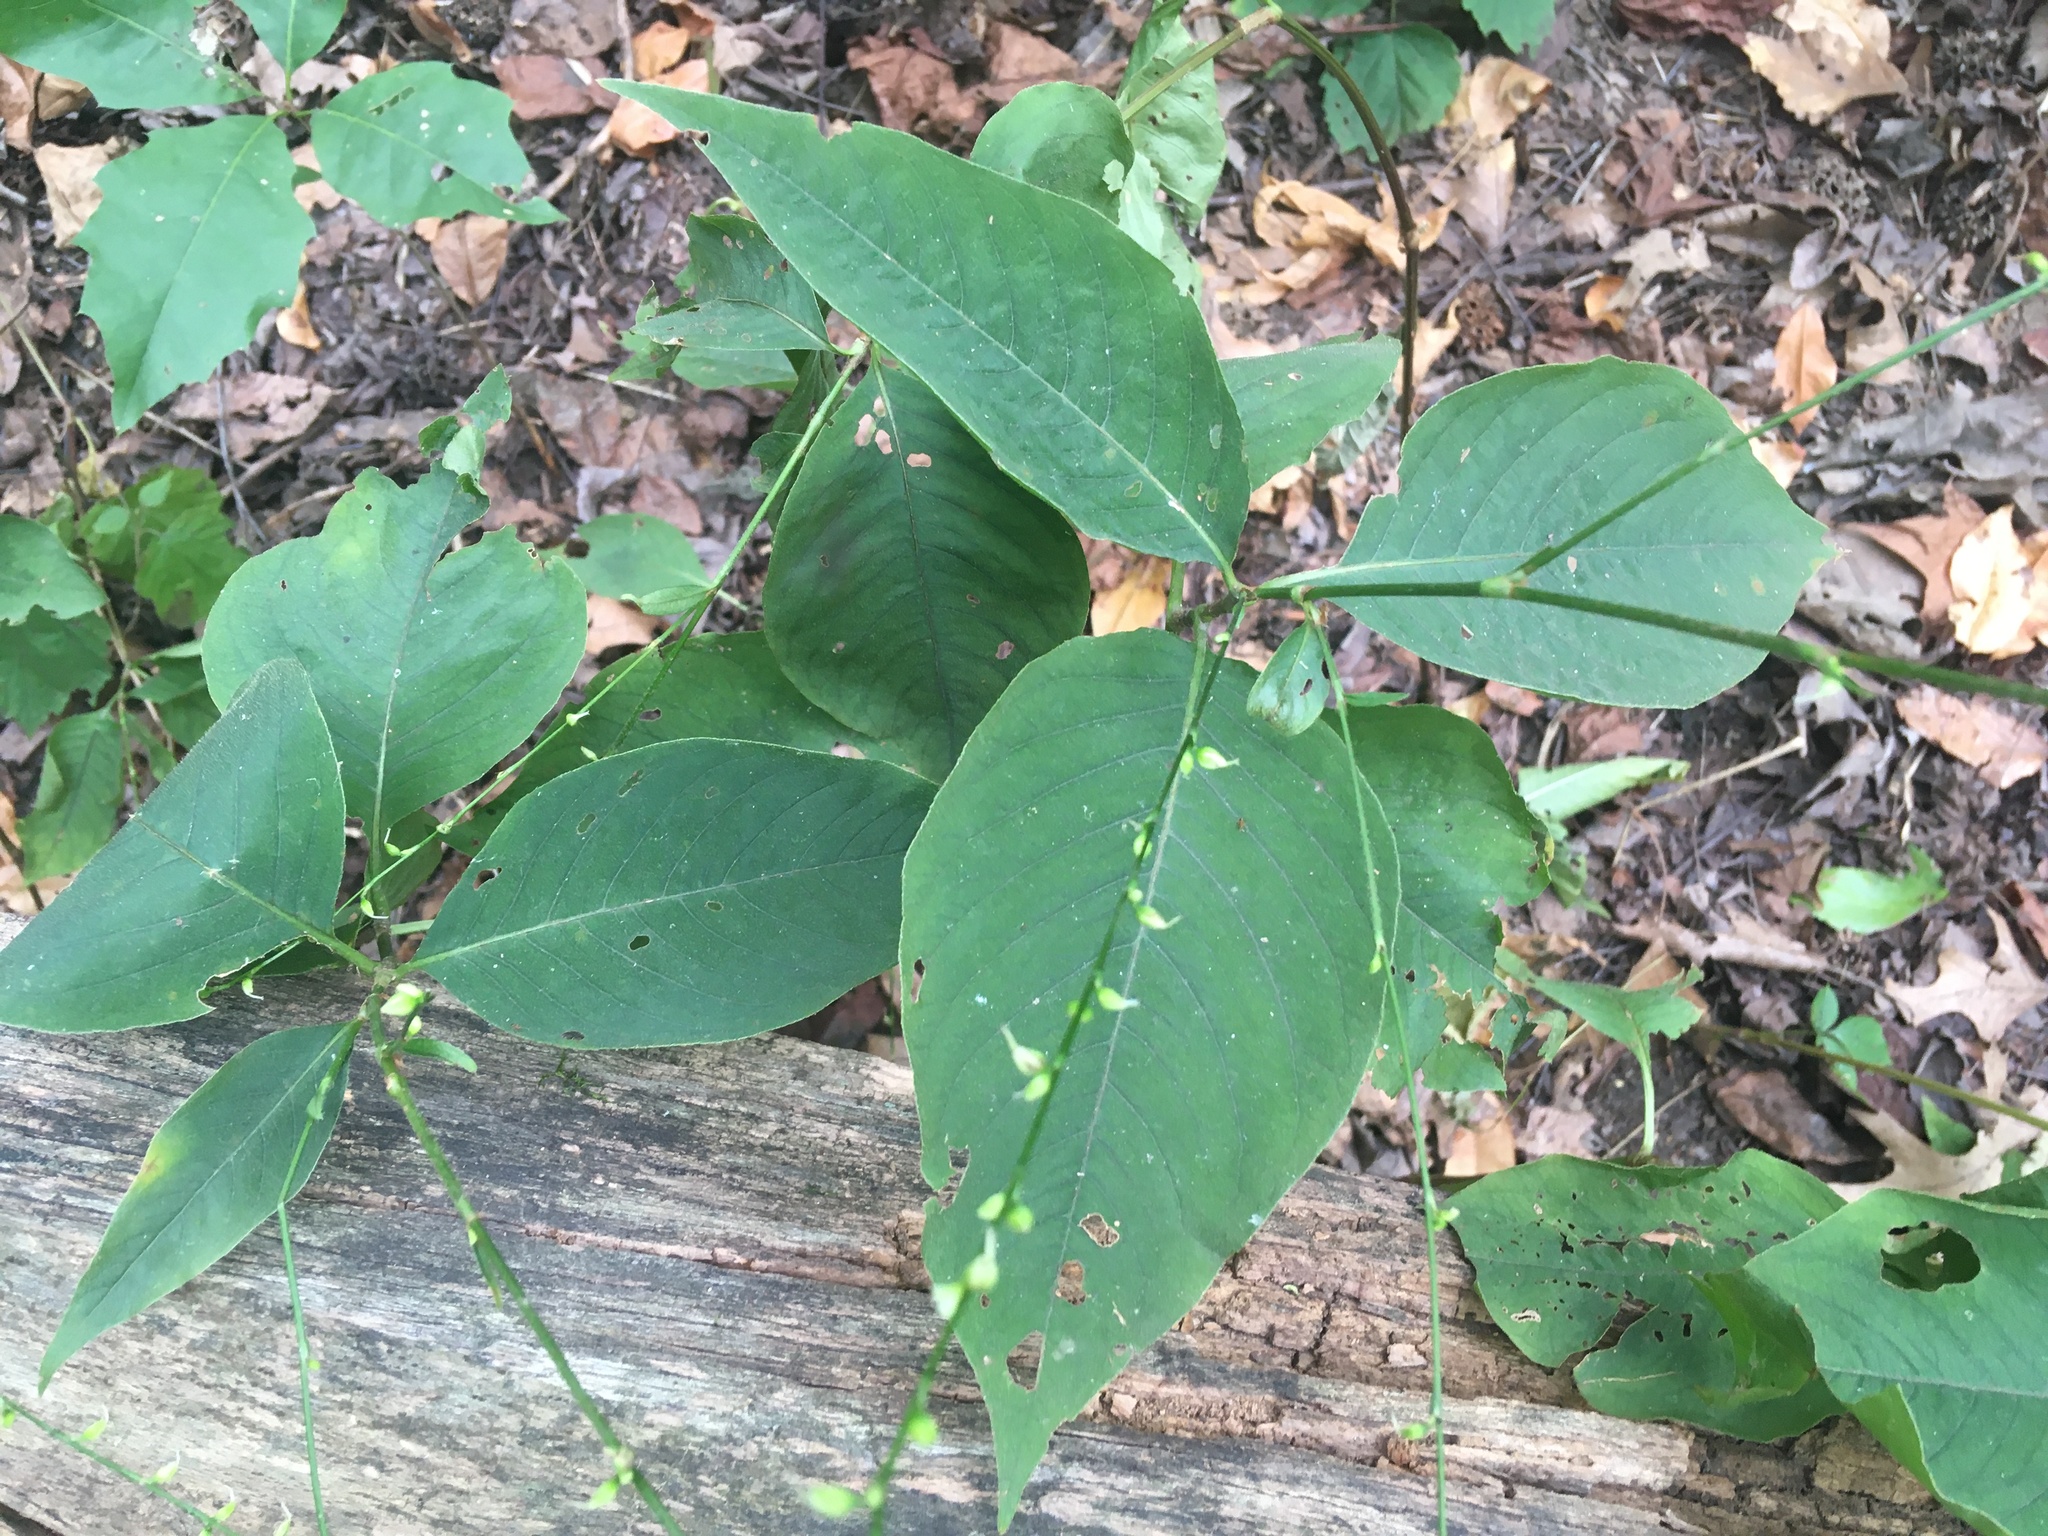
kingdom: Plantae
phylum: Tracheophyta
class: Magnoliopsida
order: Caryophyllales
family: Polygonaceae
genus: Persicaria
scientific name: Persicaria virginiana
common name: Jumpseed
